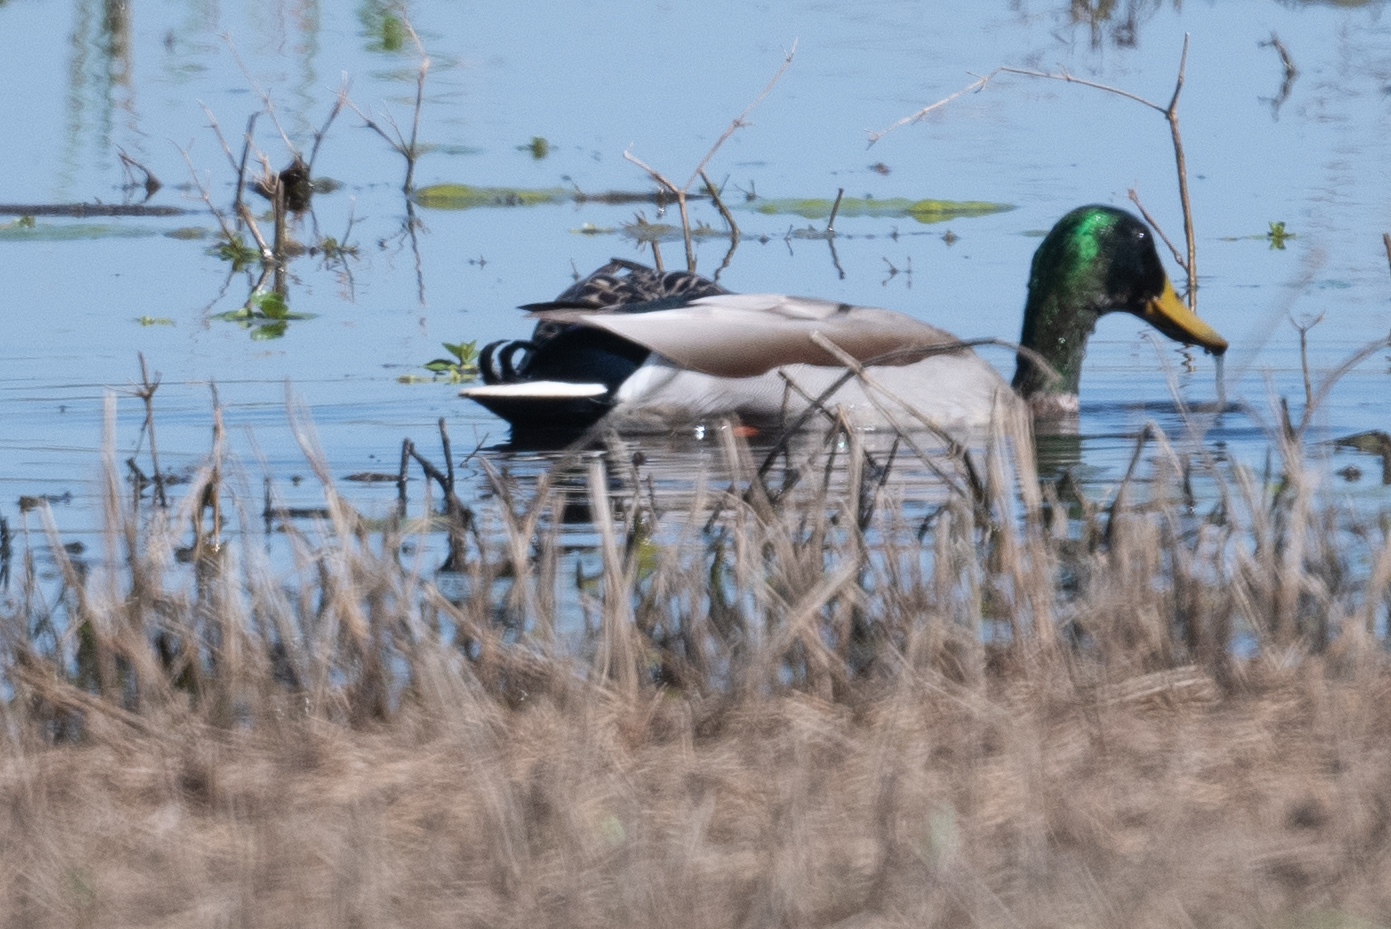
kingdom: Animalia
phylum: Chordata
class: Aves
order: Anseriformes
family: Anatidae
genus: Anas
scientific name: Anas platyrhynchos
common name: Mallard
